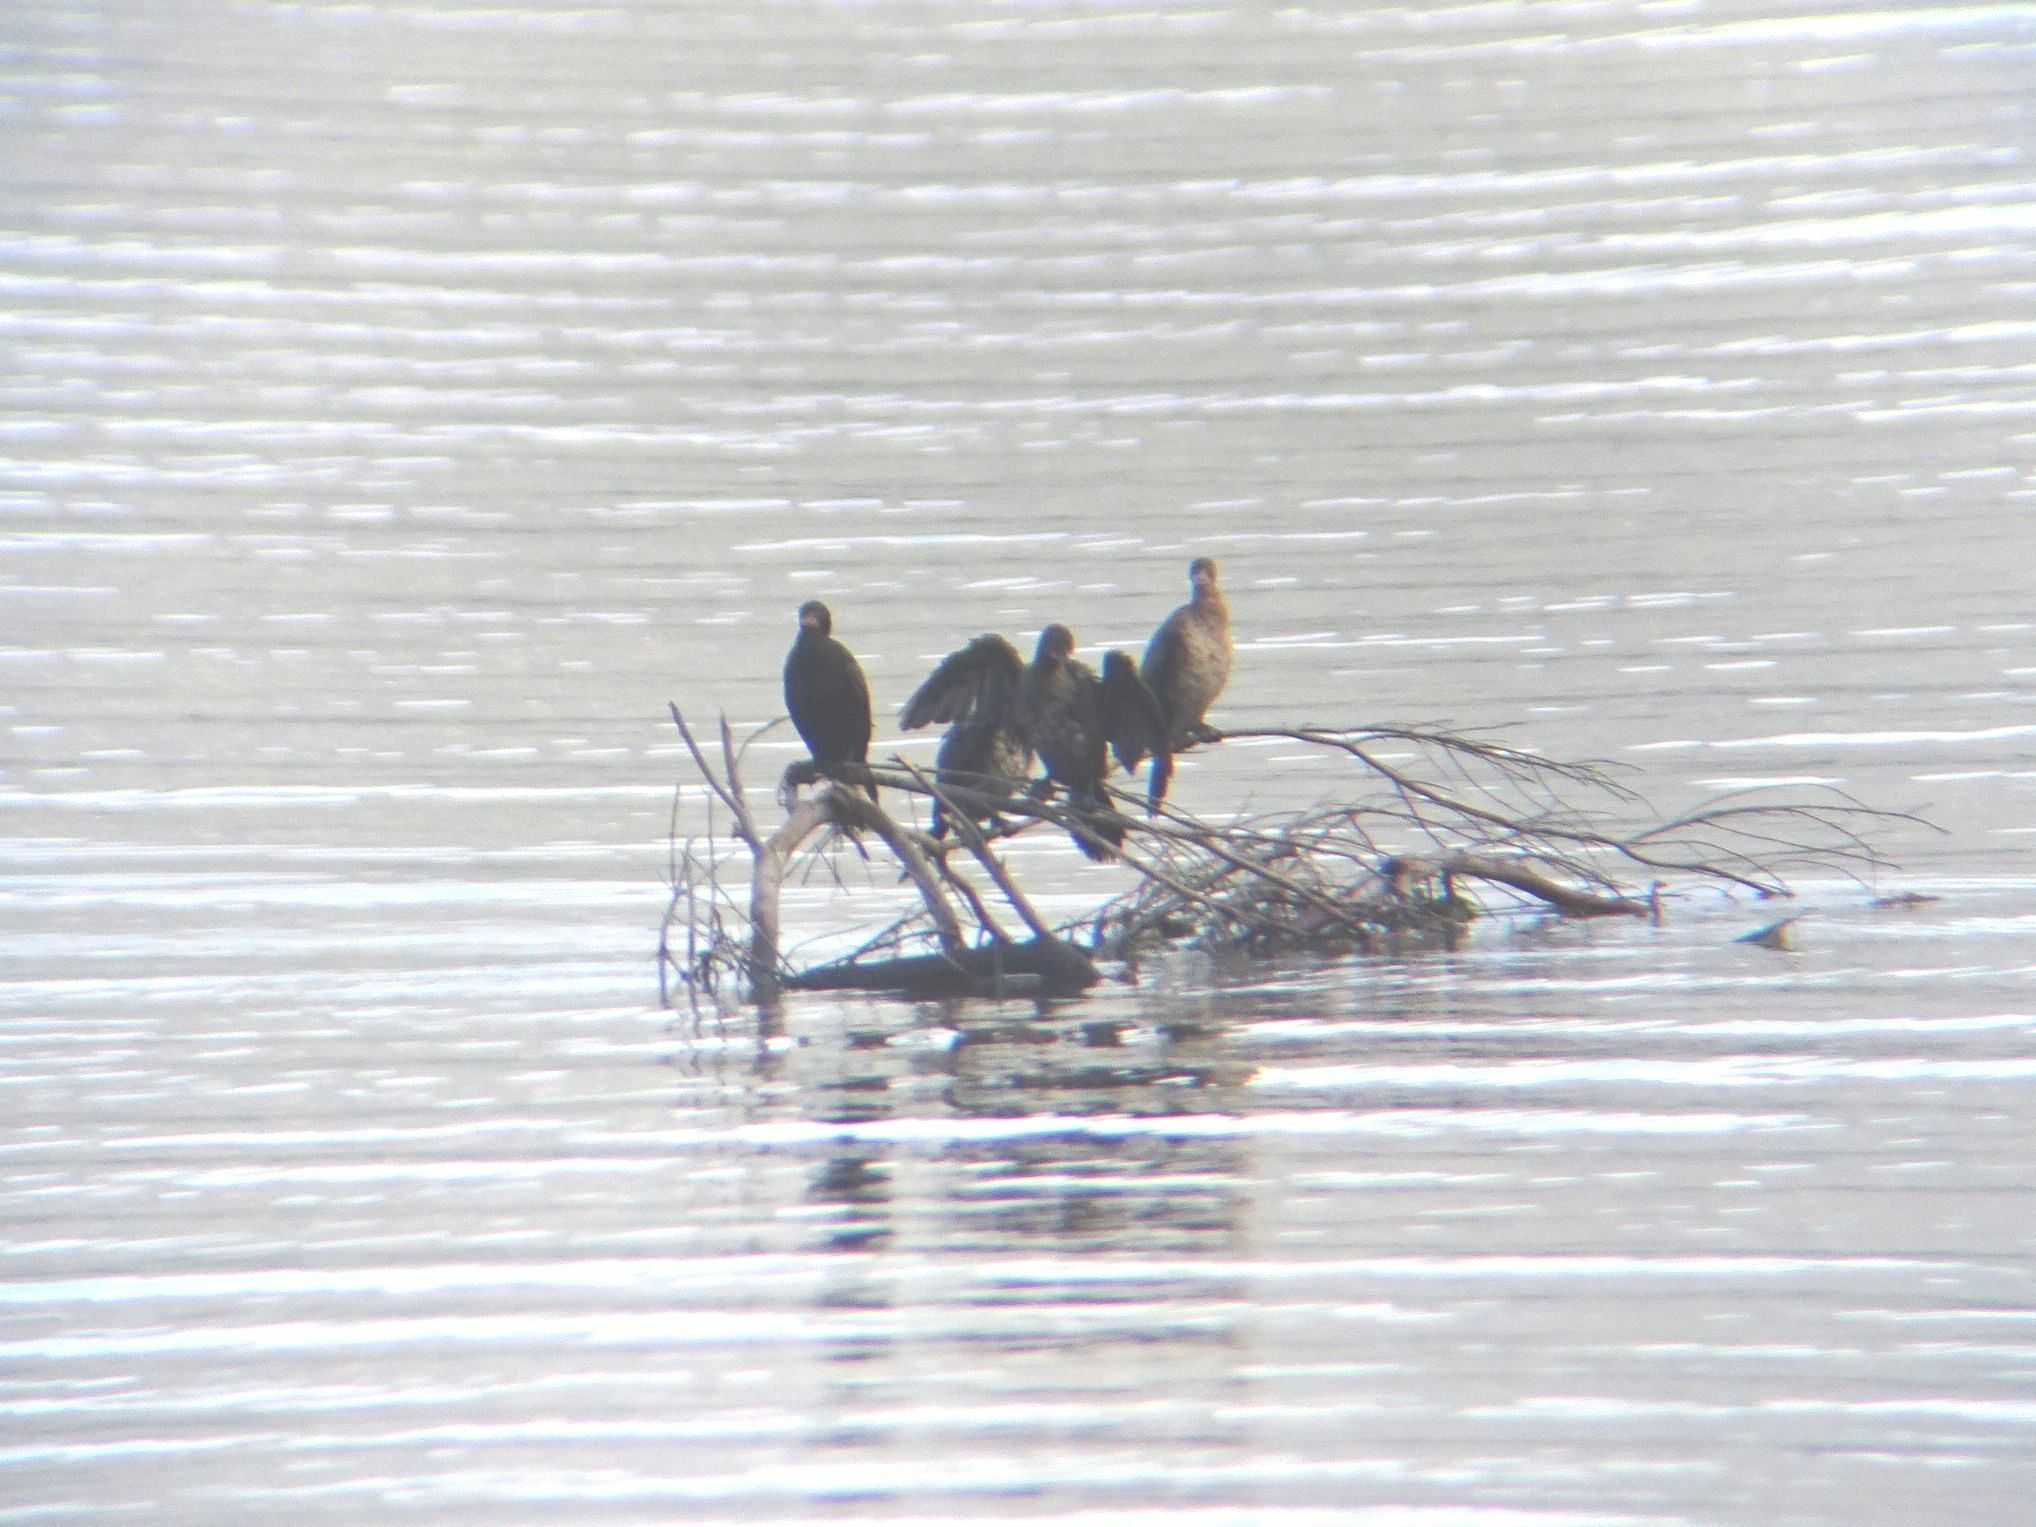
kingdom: Animalia
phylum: Chordata
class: Aves
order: Suliformes
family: Phalacrocoracidae
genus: Microcarbo
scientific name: Microcarbo africanus
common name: Long-tailed cormorant
